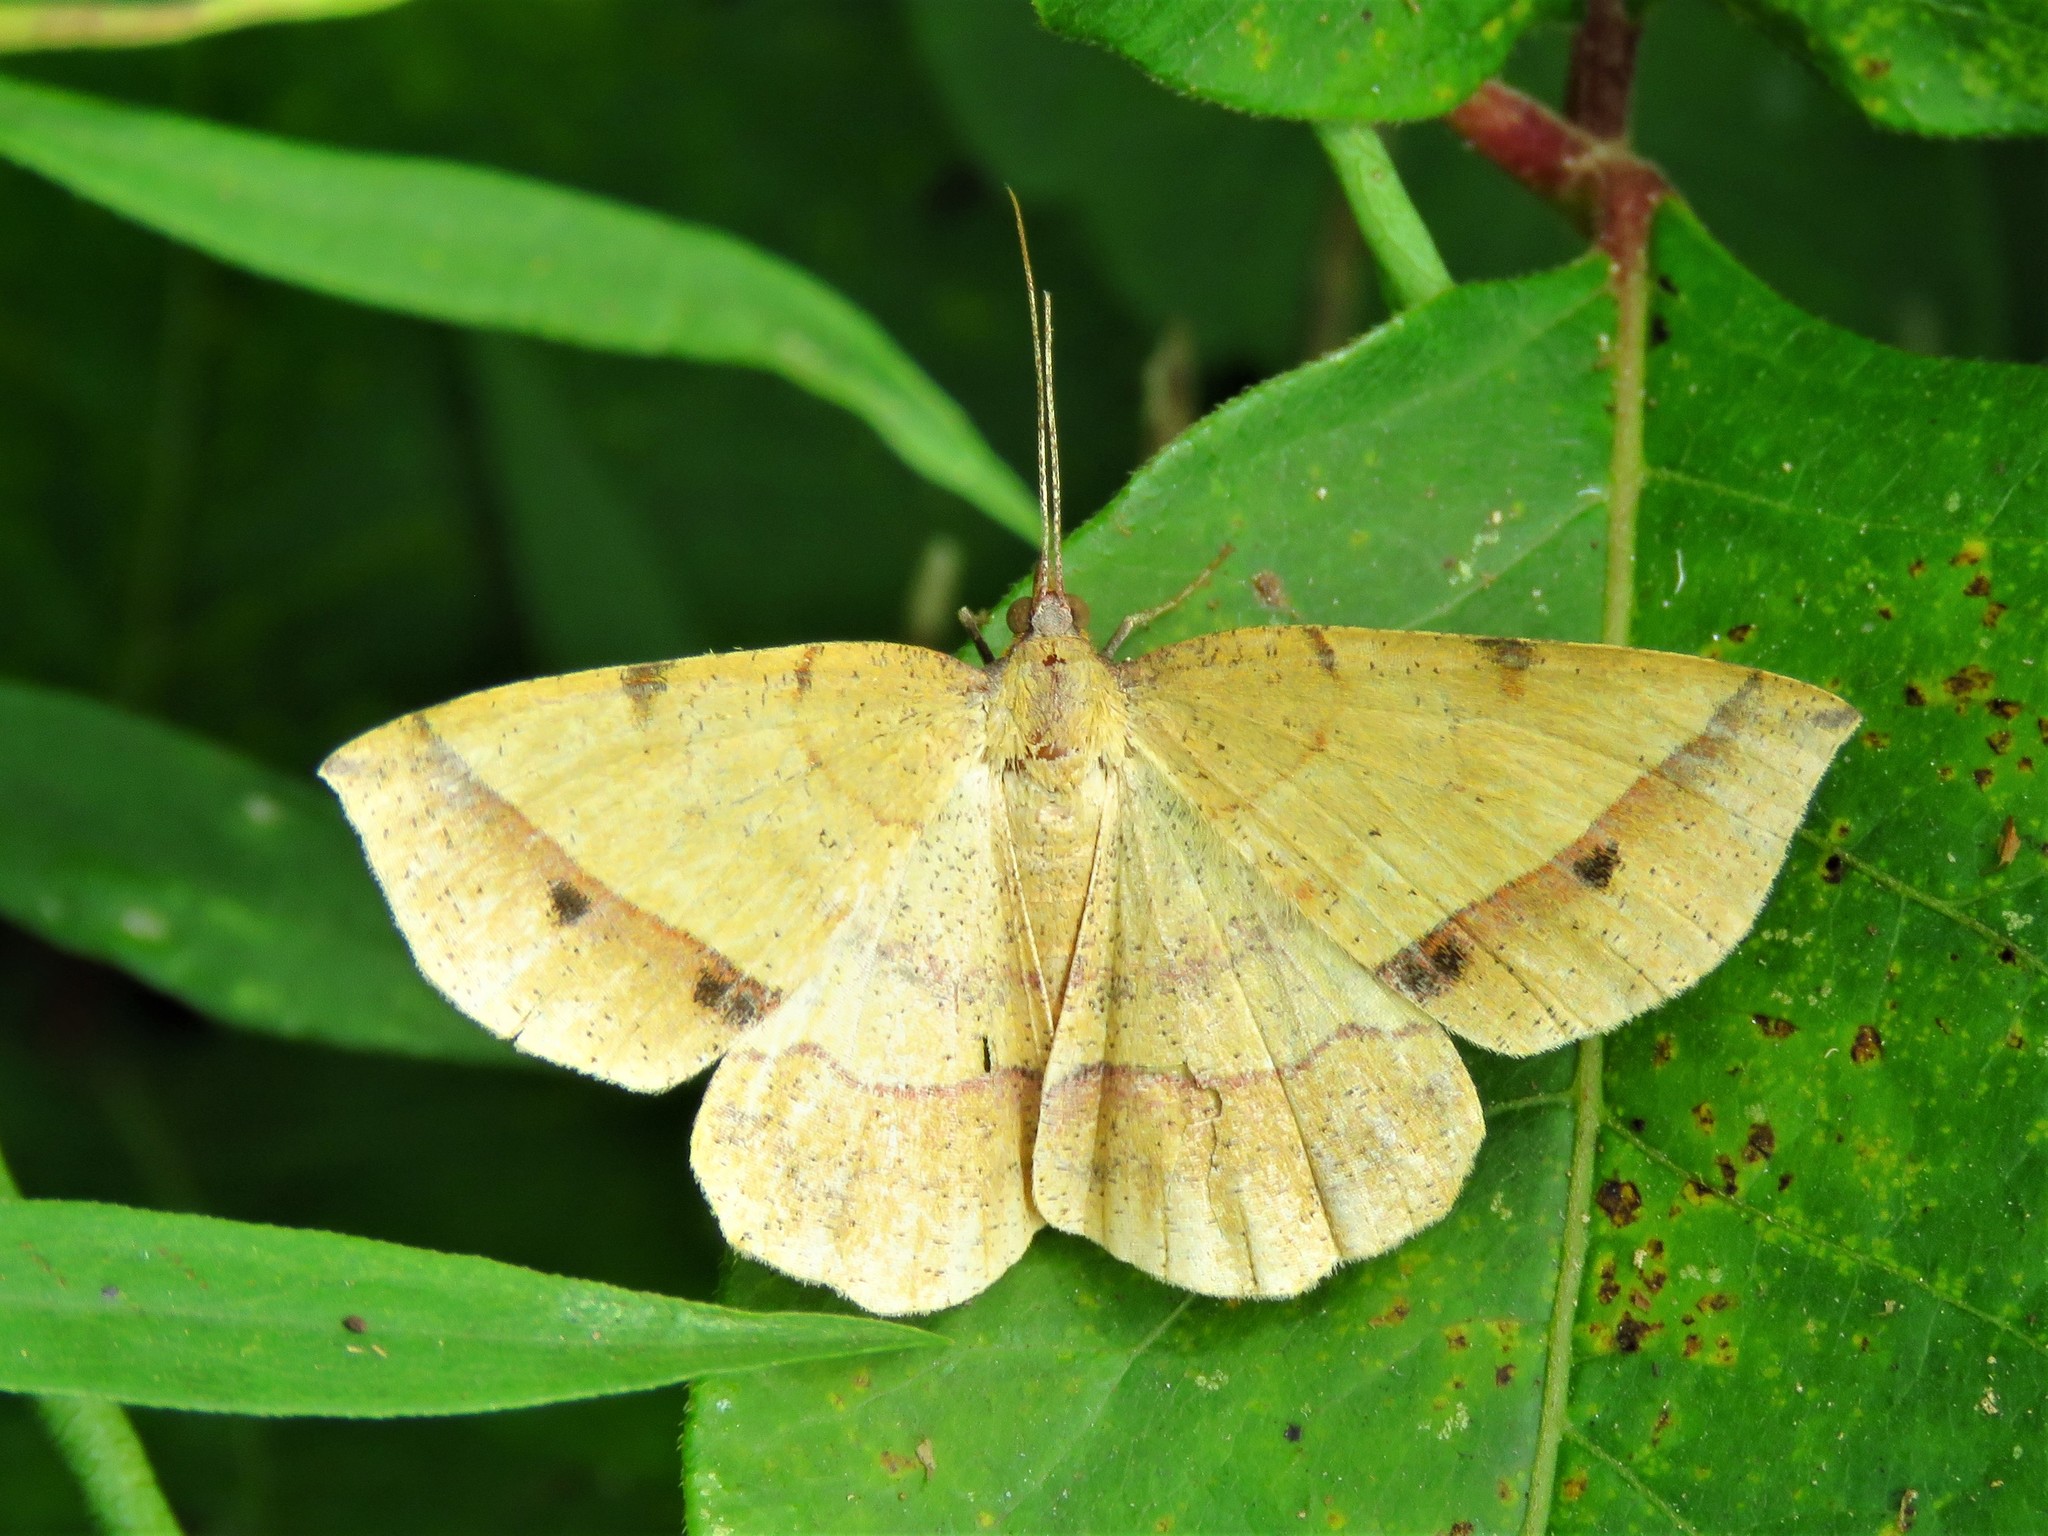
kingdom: Animalia
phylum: Arthropoda
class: Insecta
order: Lepidoptera
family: Geometridae
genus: Erastria
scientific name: Erastria cruentaria
